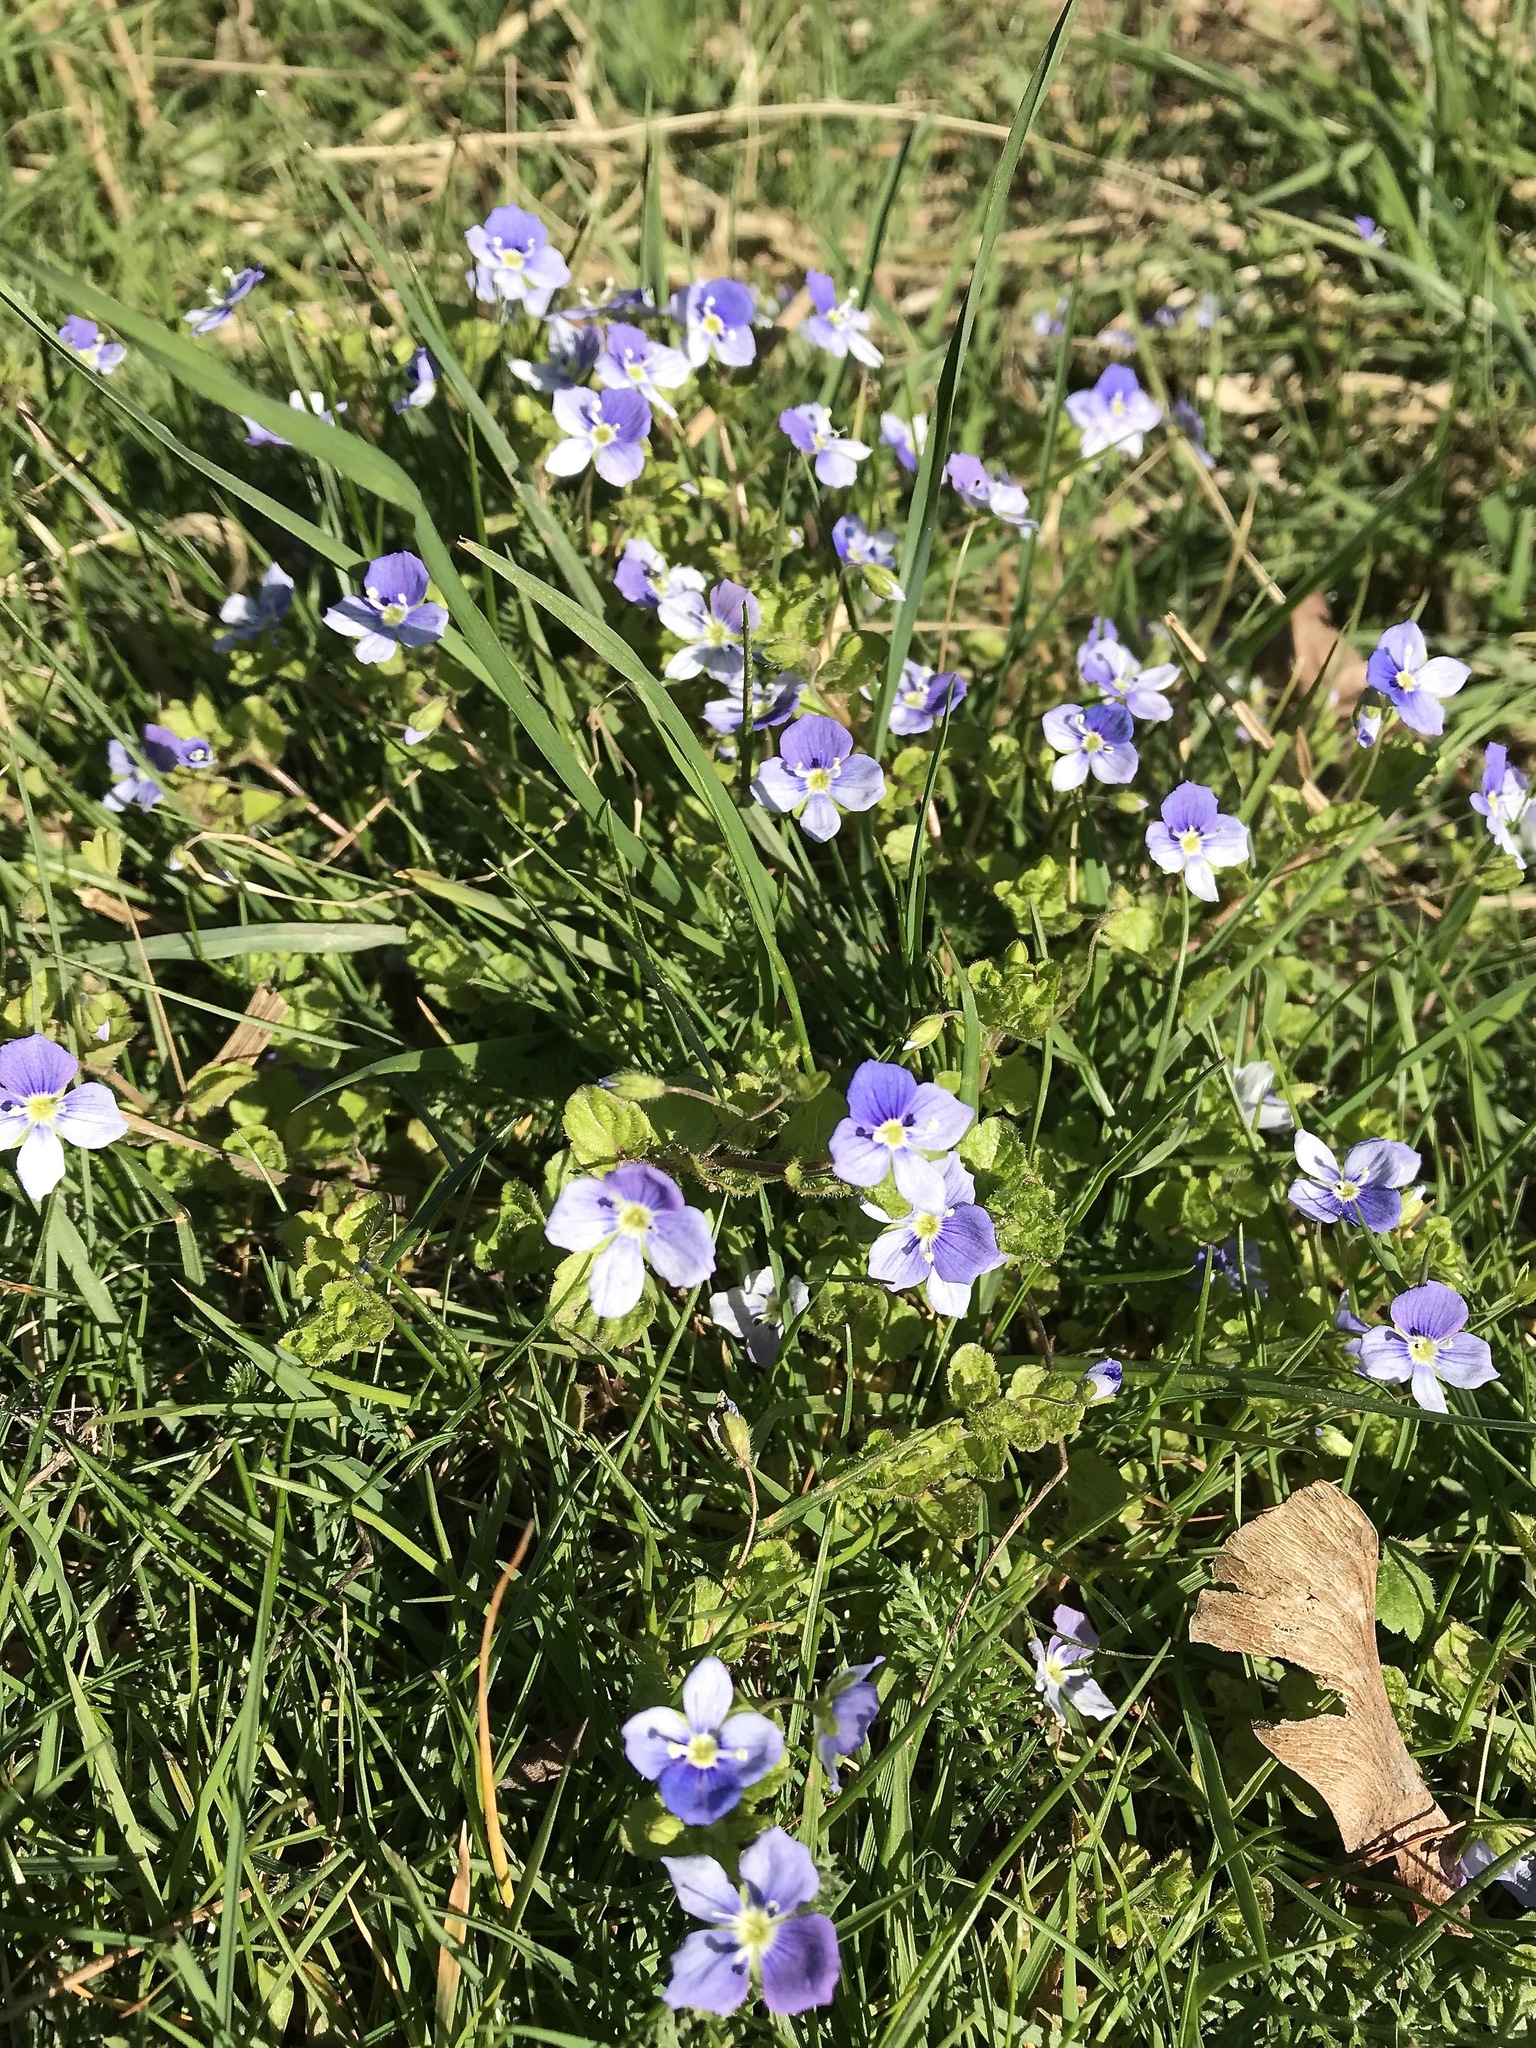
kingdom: Plantae
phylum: Tracheophyta
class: Magnoliopsida
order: Lamiales
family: Plantaginaceae
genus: Veronica
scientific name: Veronica filiformis
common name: Slender speedwell
